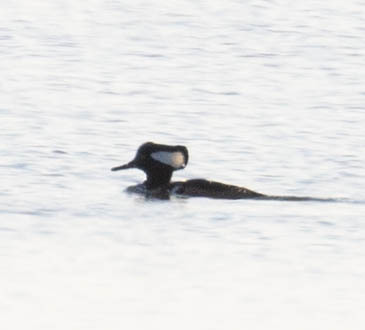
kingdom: Animalia
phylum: Chordata
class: Aves
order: Anseriformes
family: Anatidae
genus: Lophodytes
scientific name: Lophodytes cucullatus
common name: Hooded merganser
